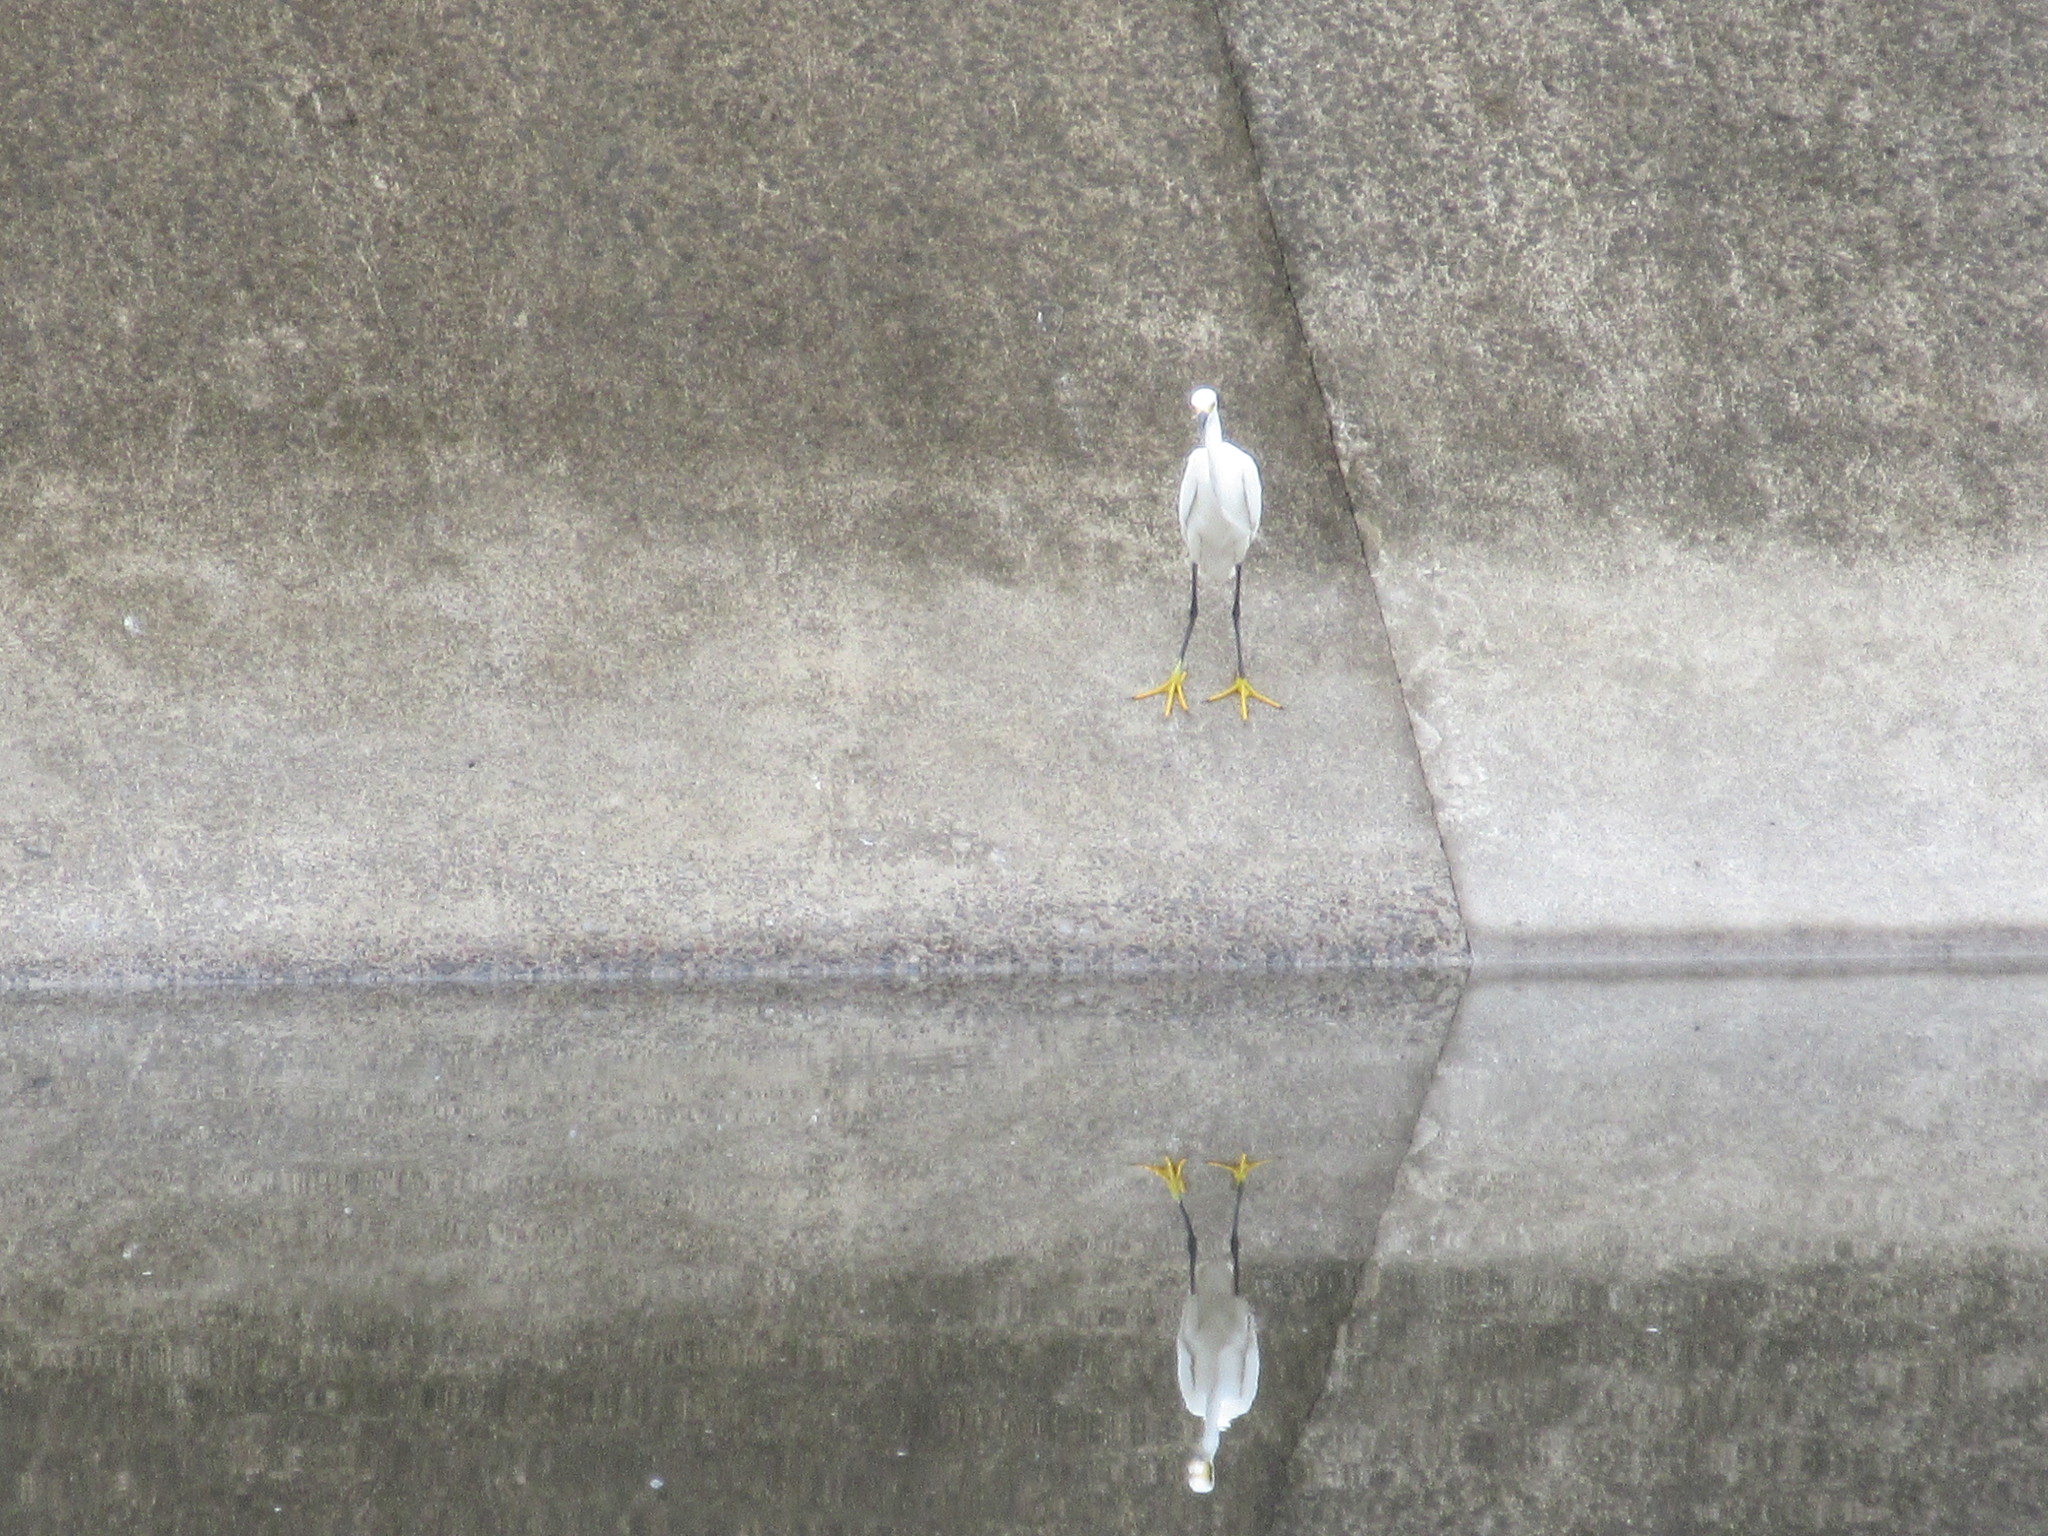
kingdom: Animalia
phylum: Chordata
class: Aves
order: Pelecaniformes
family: Ardeidae
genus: Egretta
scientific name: Egretta thula
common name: Snowy egret
